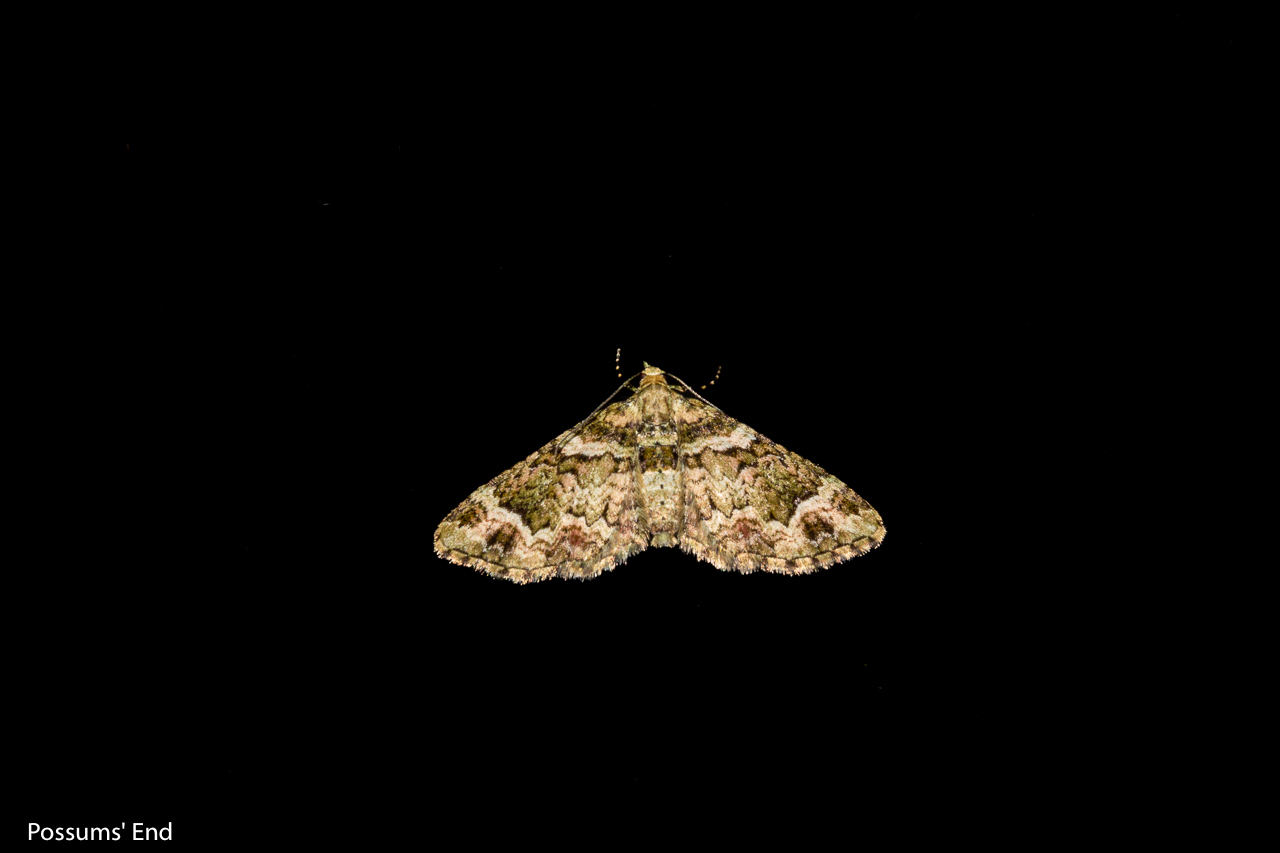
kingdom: Animalia
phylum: Arthropoda
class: Insecta
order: Lepidoptera
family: Geometridae
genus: Pasiphila
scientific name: Pasiphila urticae
